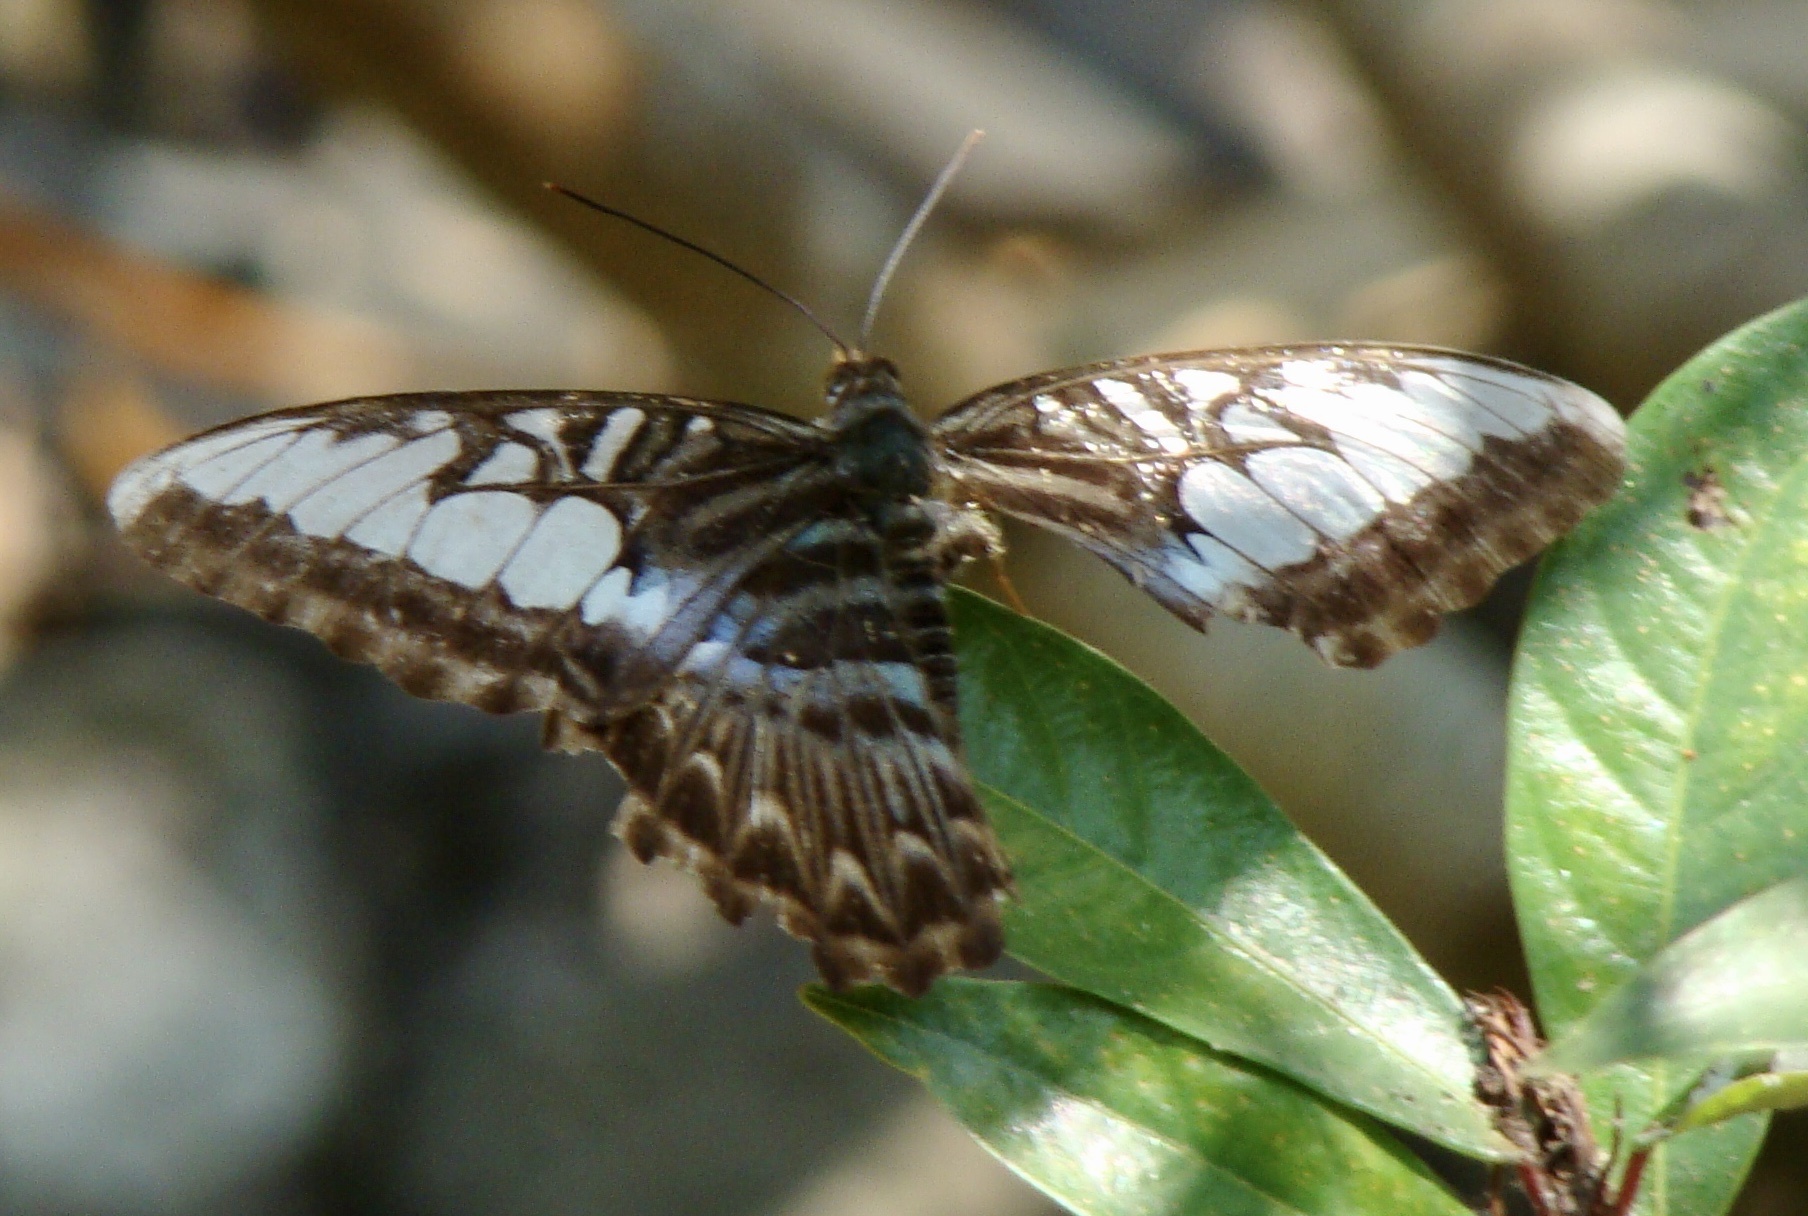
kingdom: Animalia
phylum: Arthropoda
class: Insecta
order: Lepidoptera
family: Nymphalidae
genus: Kallima
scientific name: Kallima sylvia
